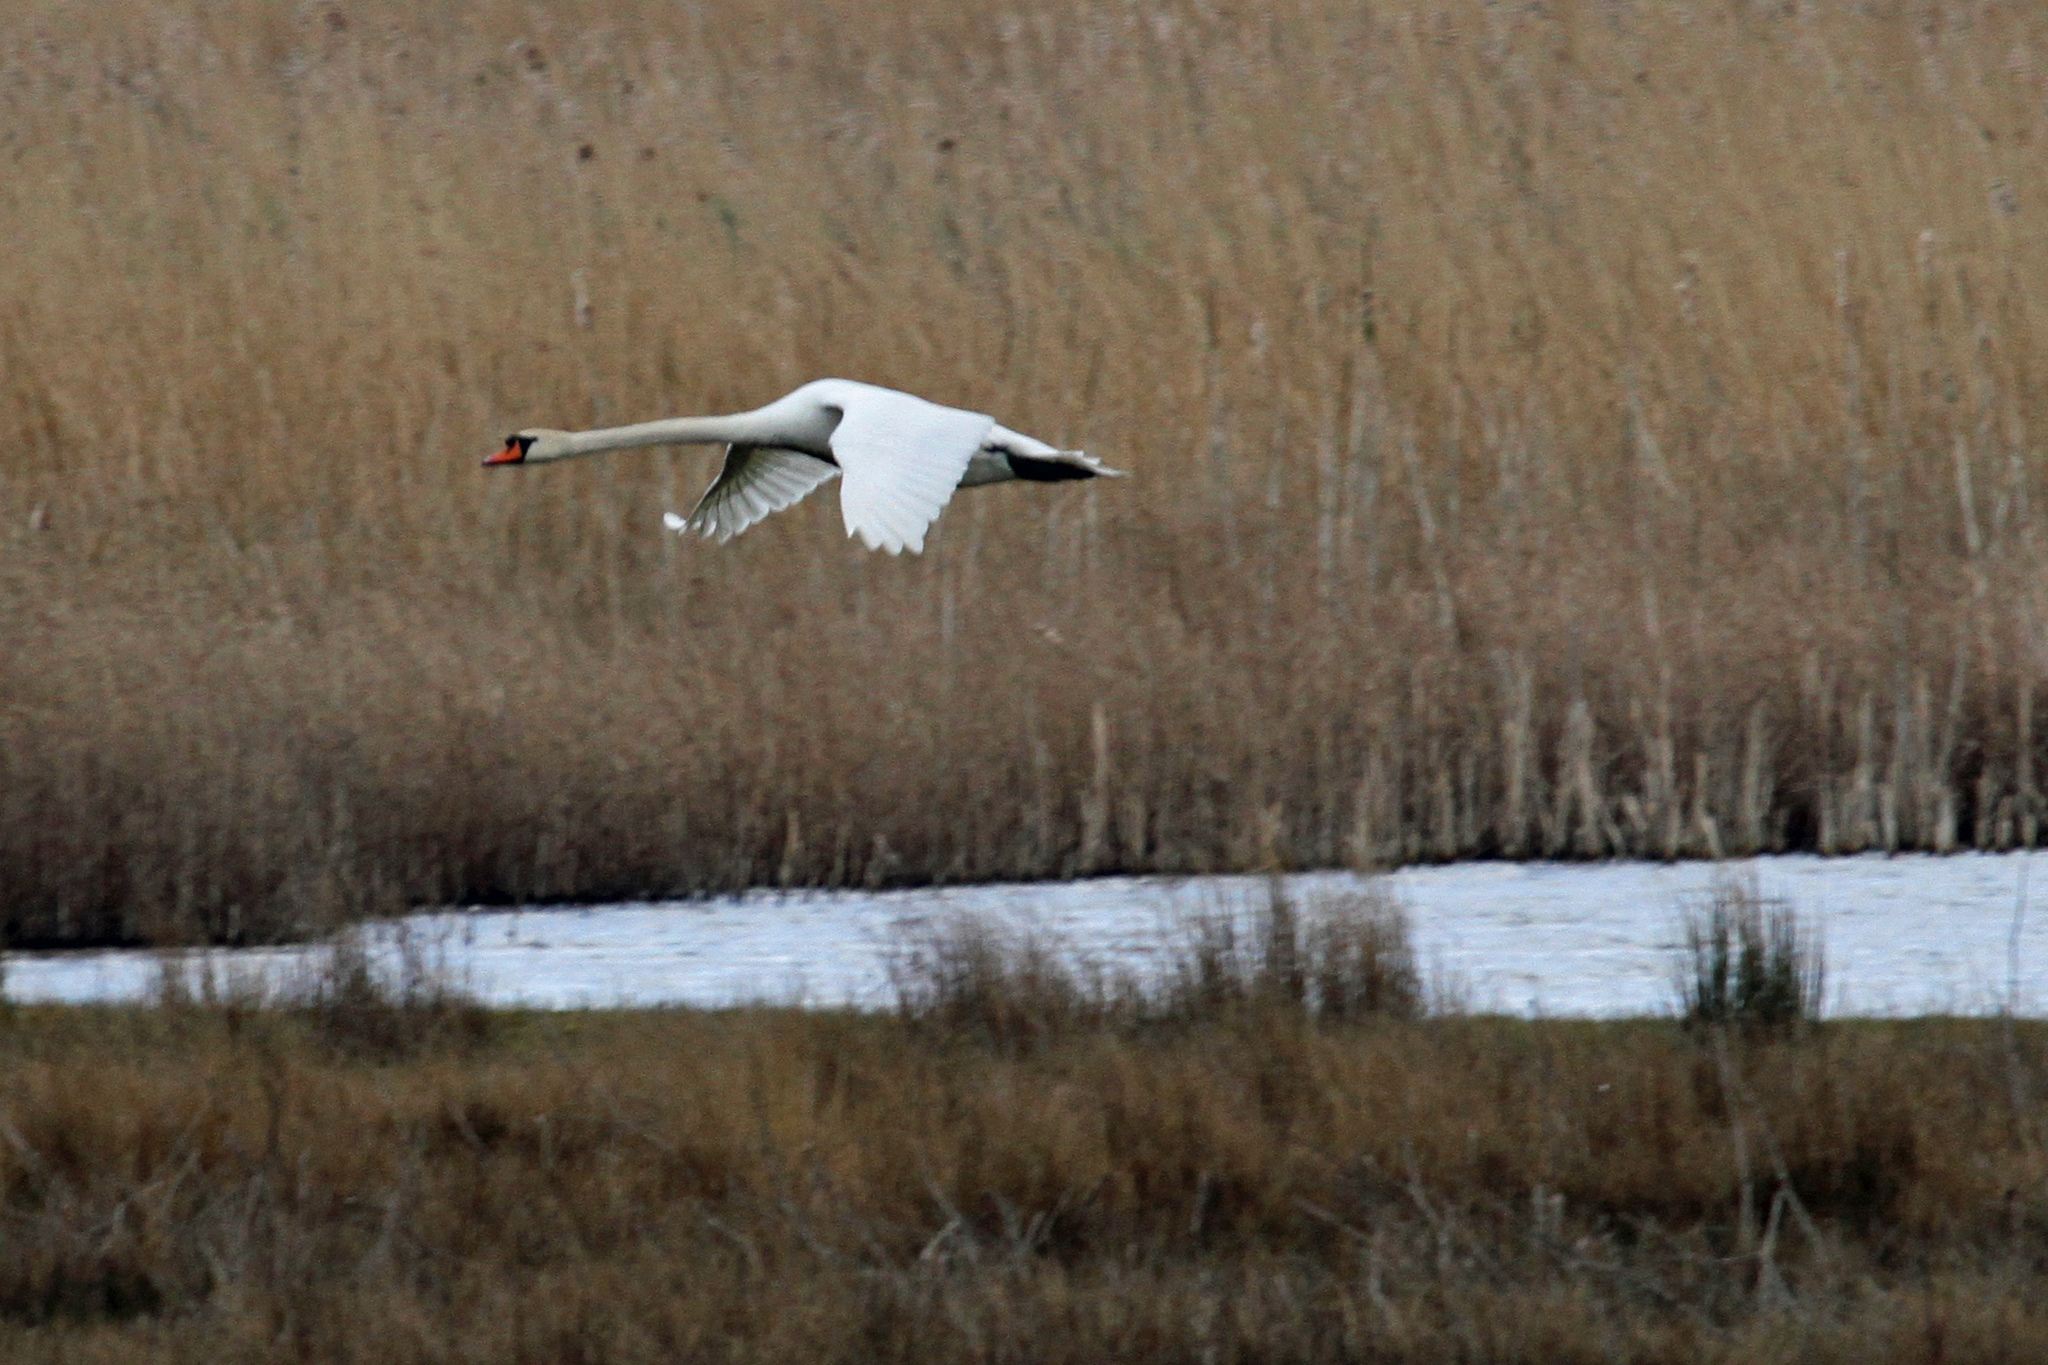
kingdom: Animalia
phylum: Chordata
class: Aves
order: Anseriformes
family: Anatidae
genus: Cygnus
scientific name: Cygnus olor
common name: Mute swan
